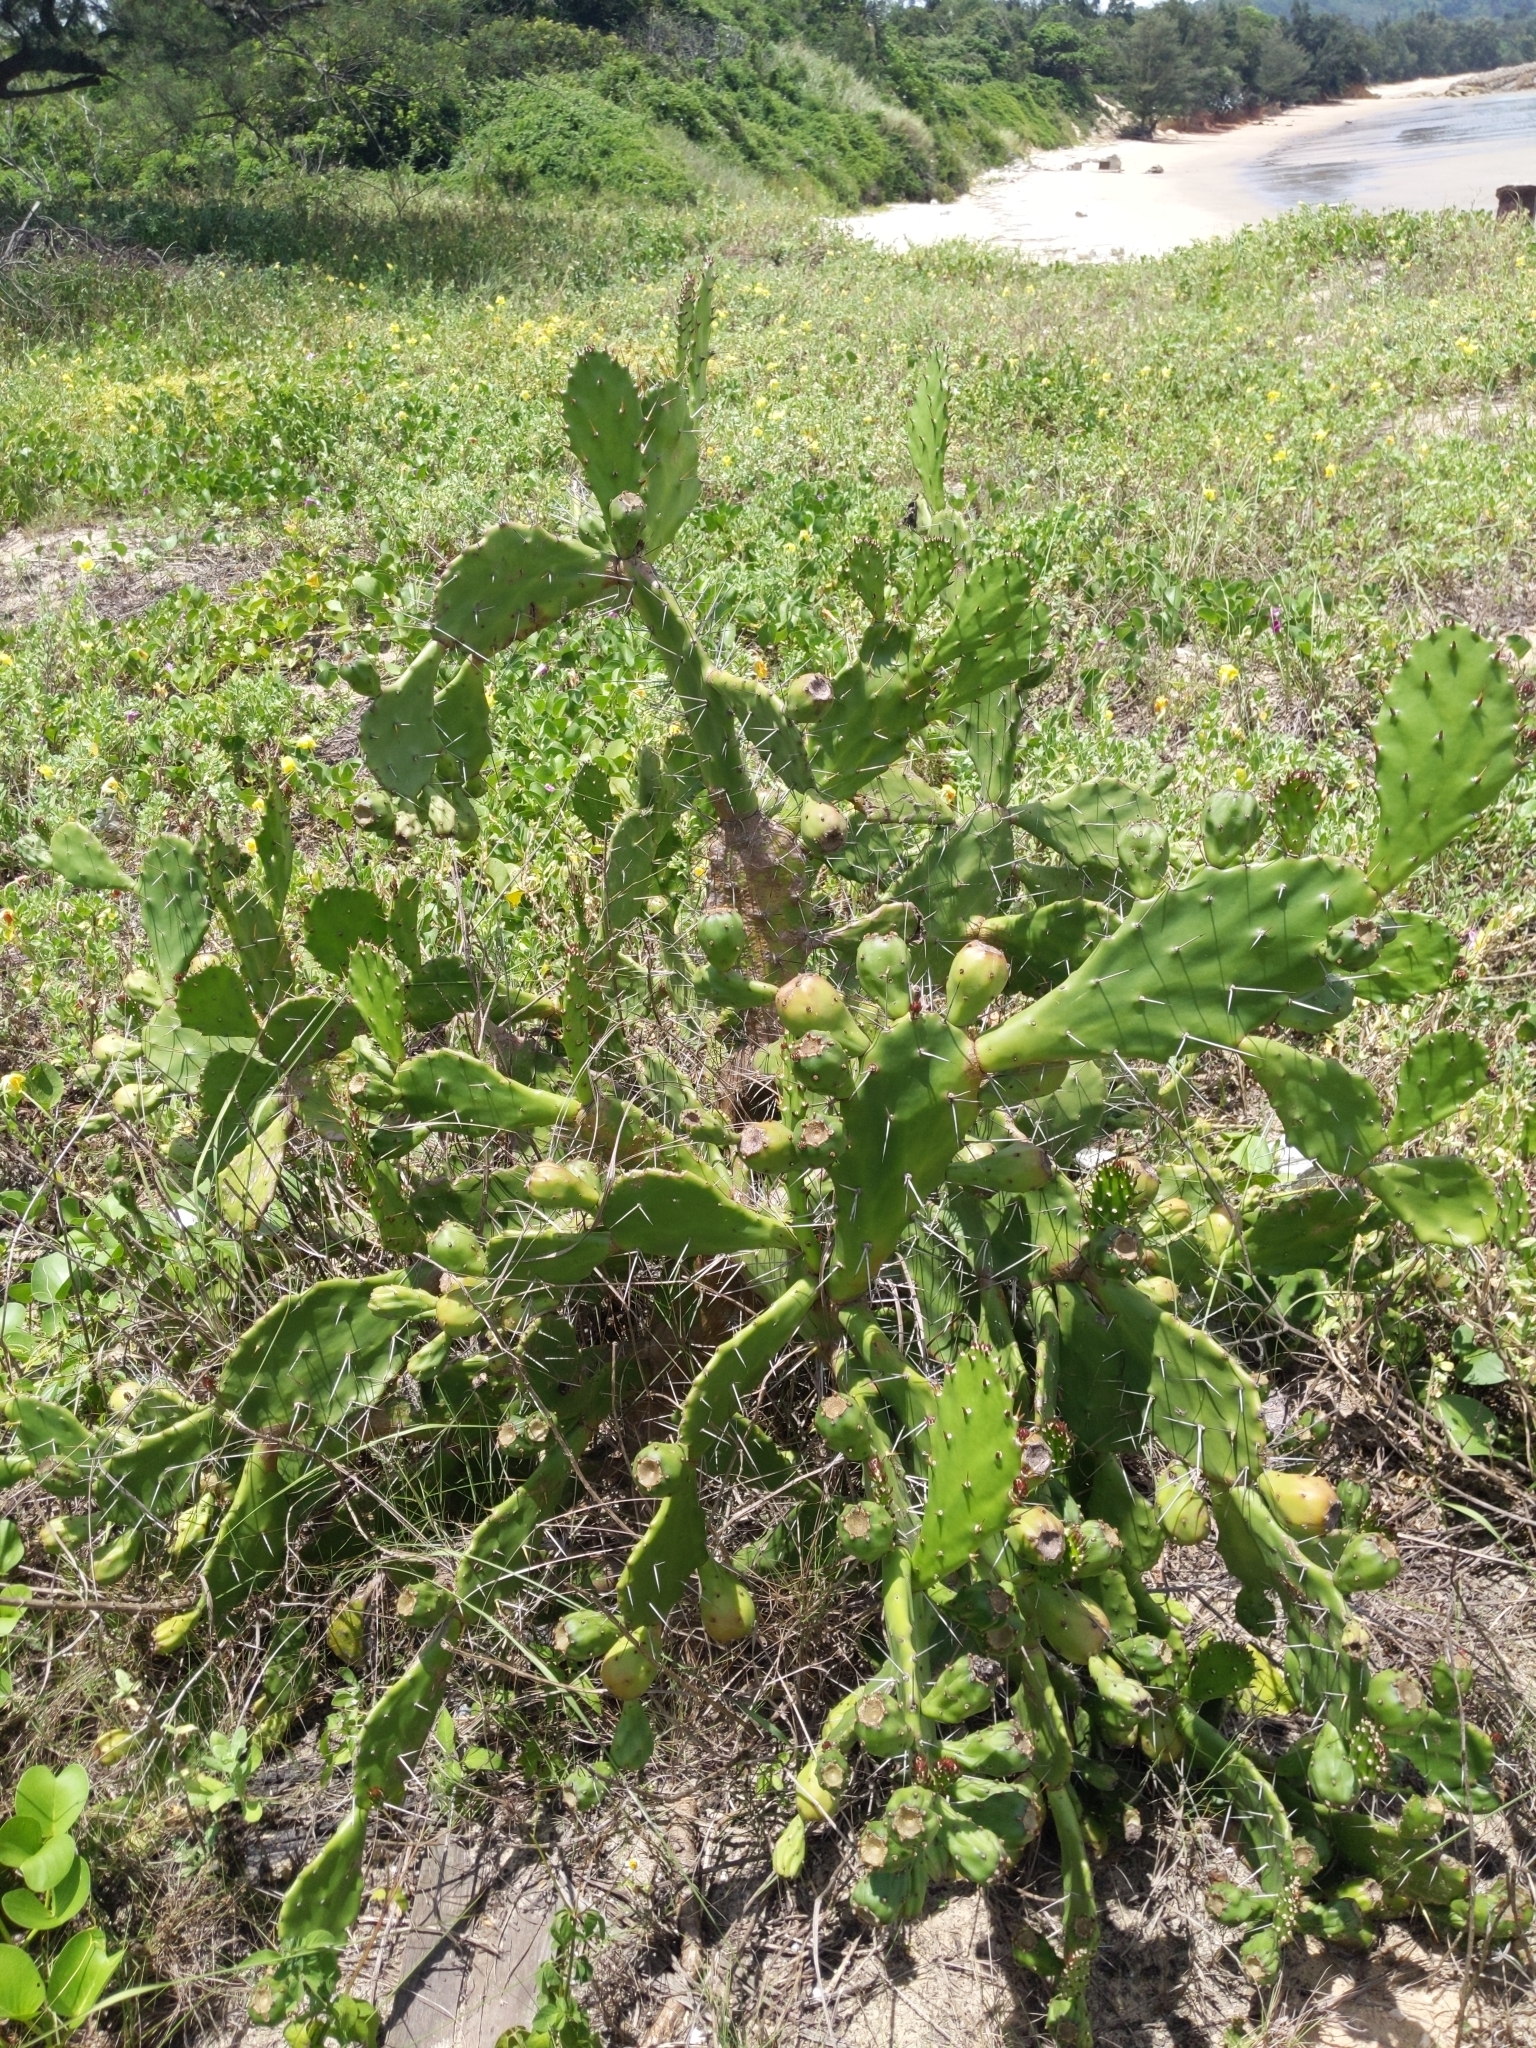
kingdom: Plantae
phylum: Tracheophyta
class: Magnoliopsida
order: Caryophyllales
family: Cactaceae
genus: Opuntia
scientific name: Opuntia monacantha
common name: Common pricklypear
